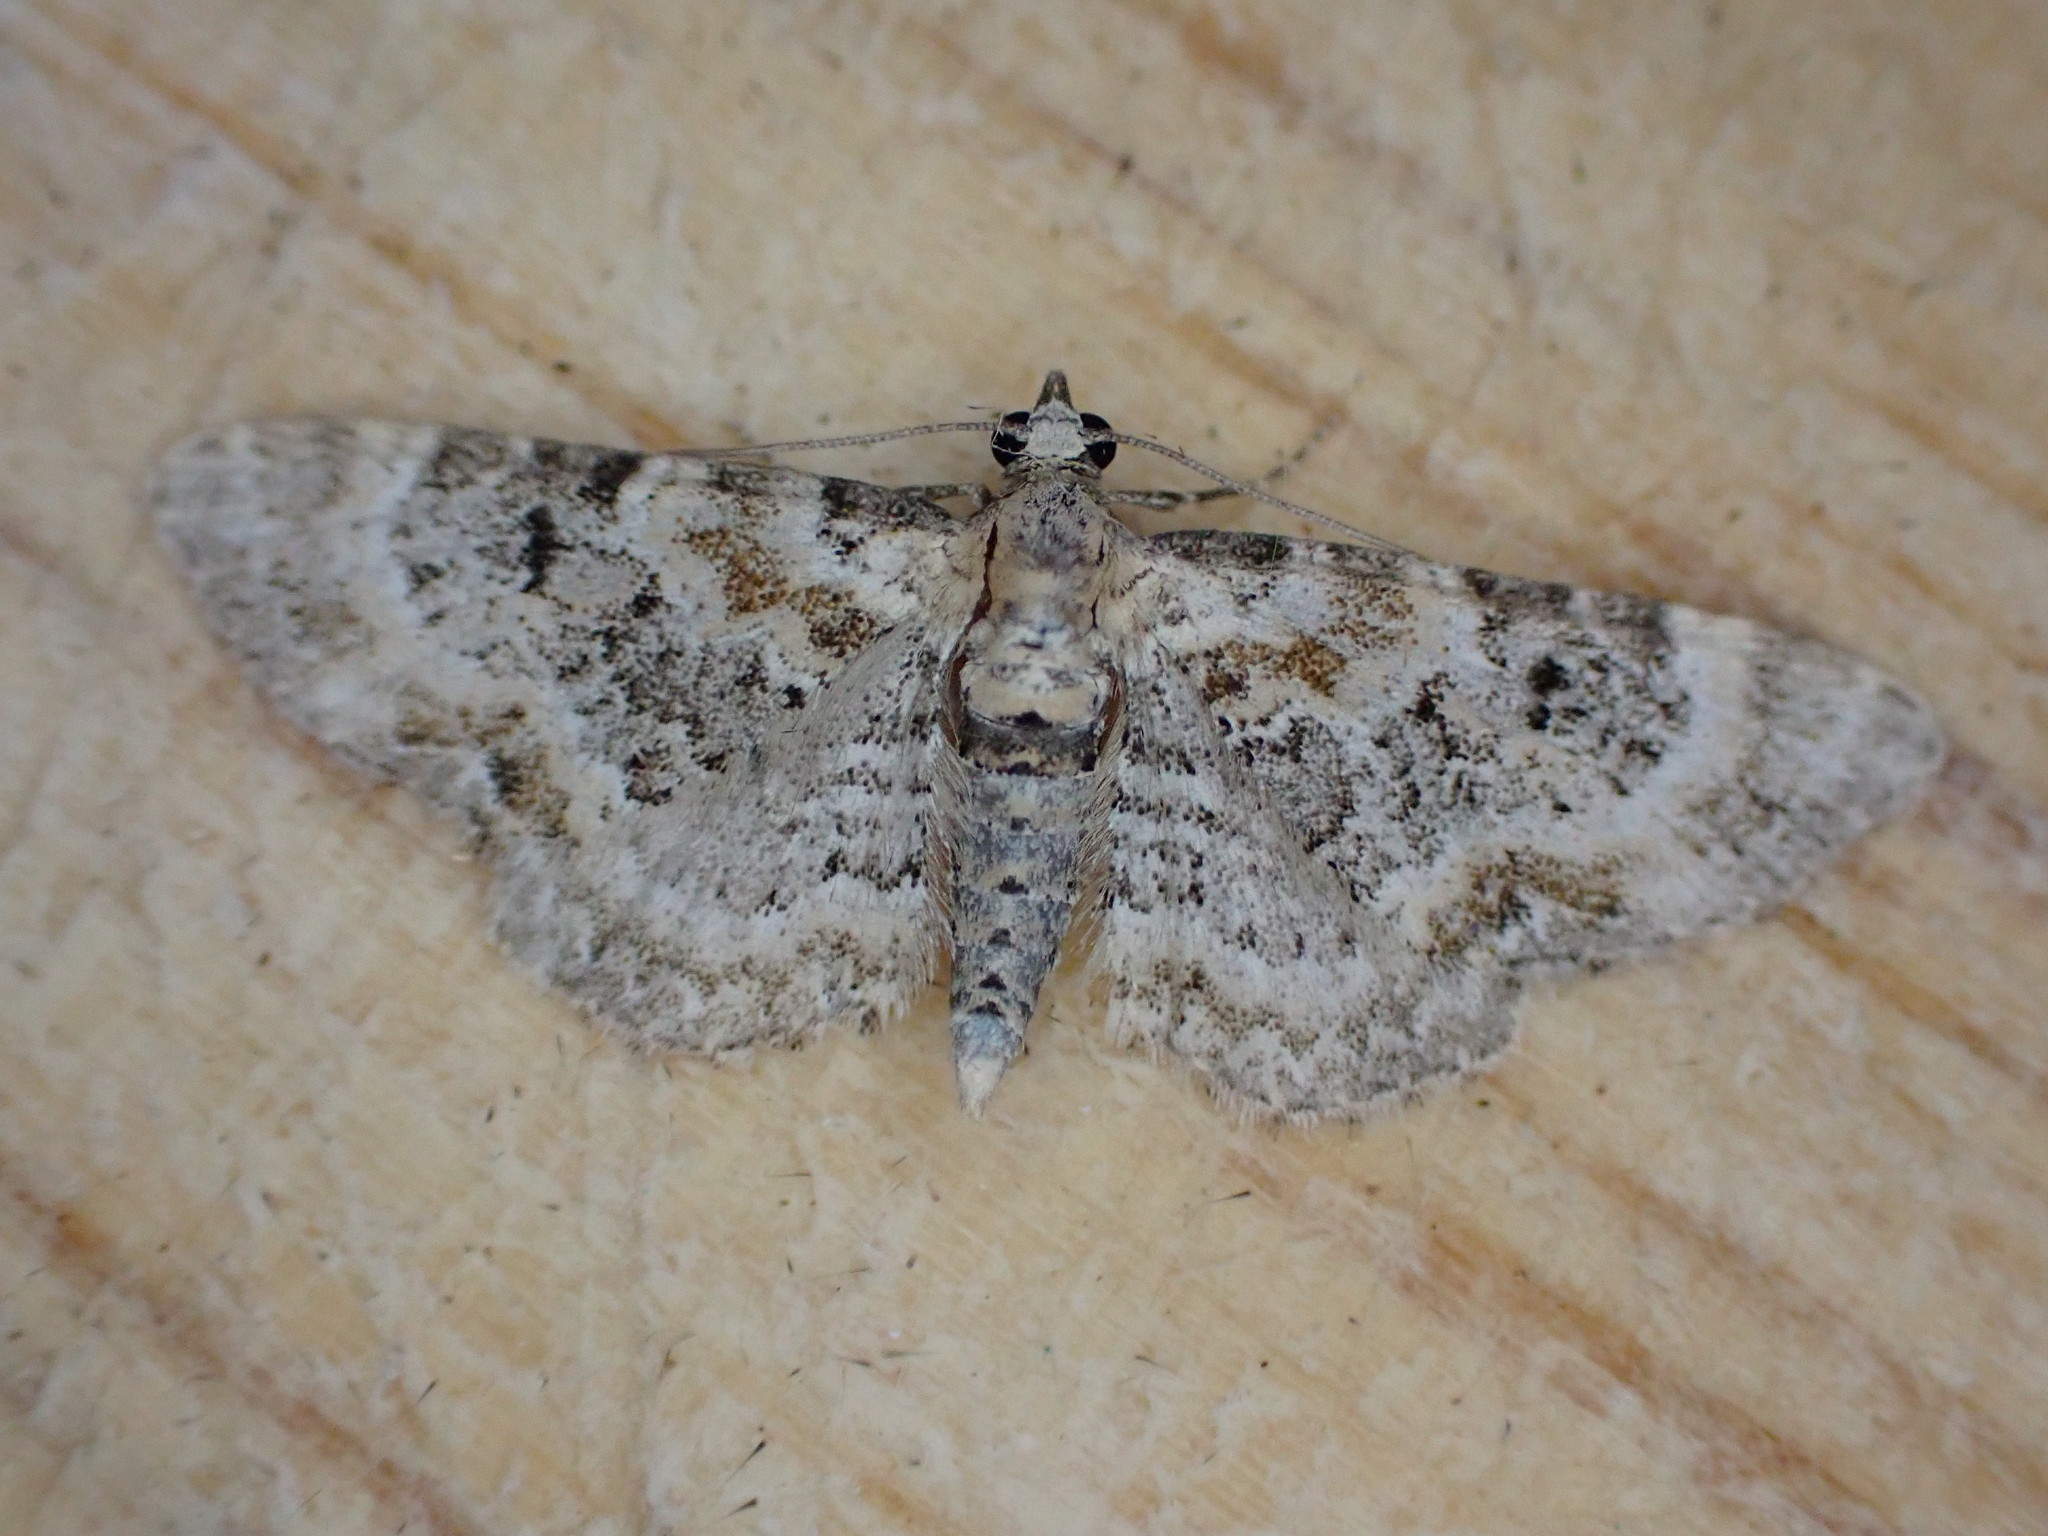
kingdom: Animalia
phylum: Arthropoda
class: Insecta
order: Lepidoptera
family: Geometridae
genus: Eupithecia
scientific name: Eupithecia pulchellata
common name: Foxglove pug
